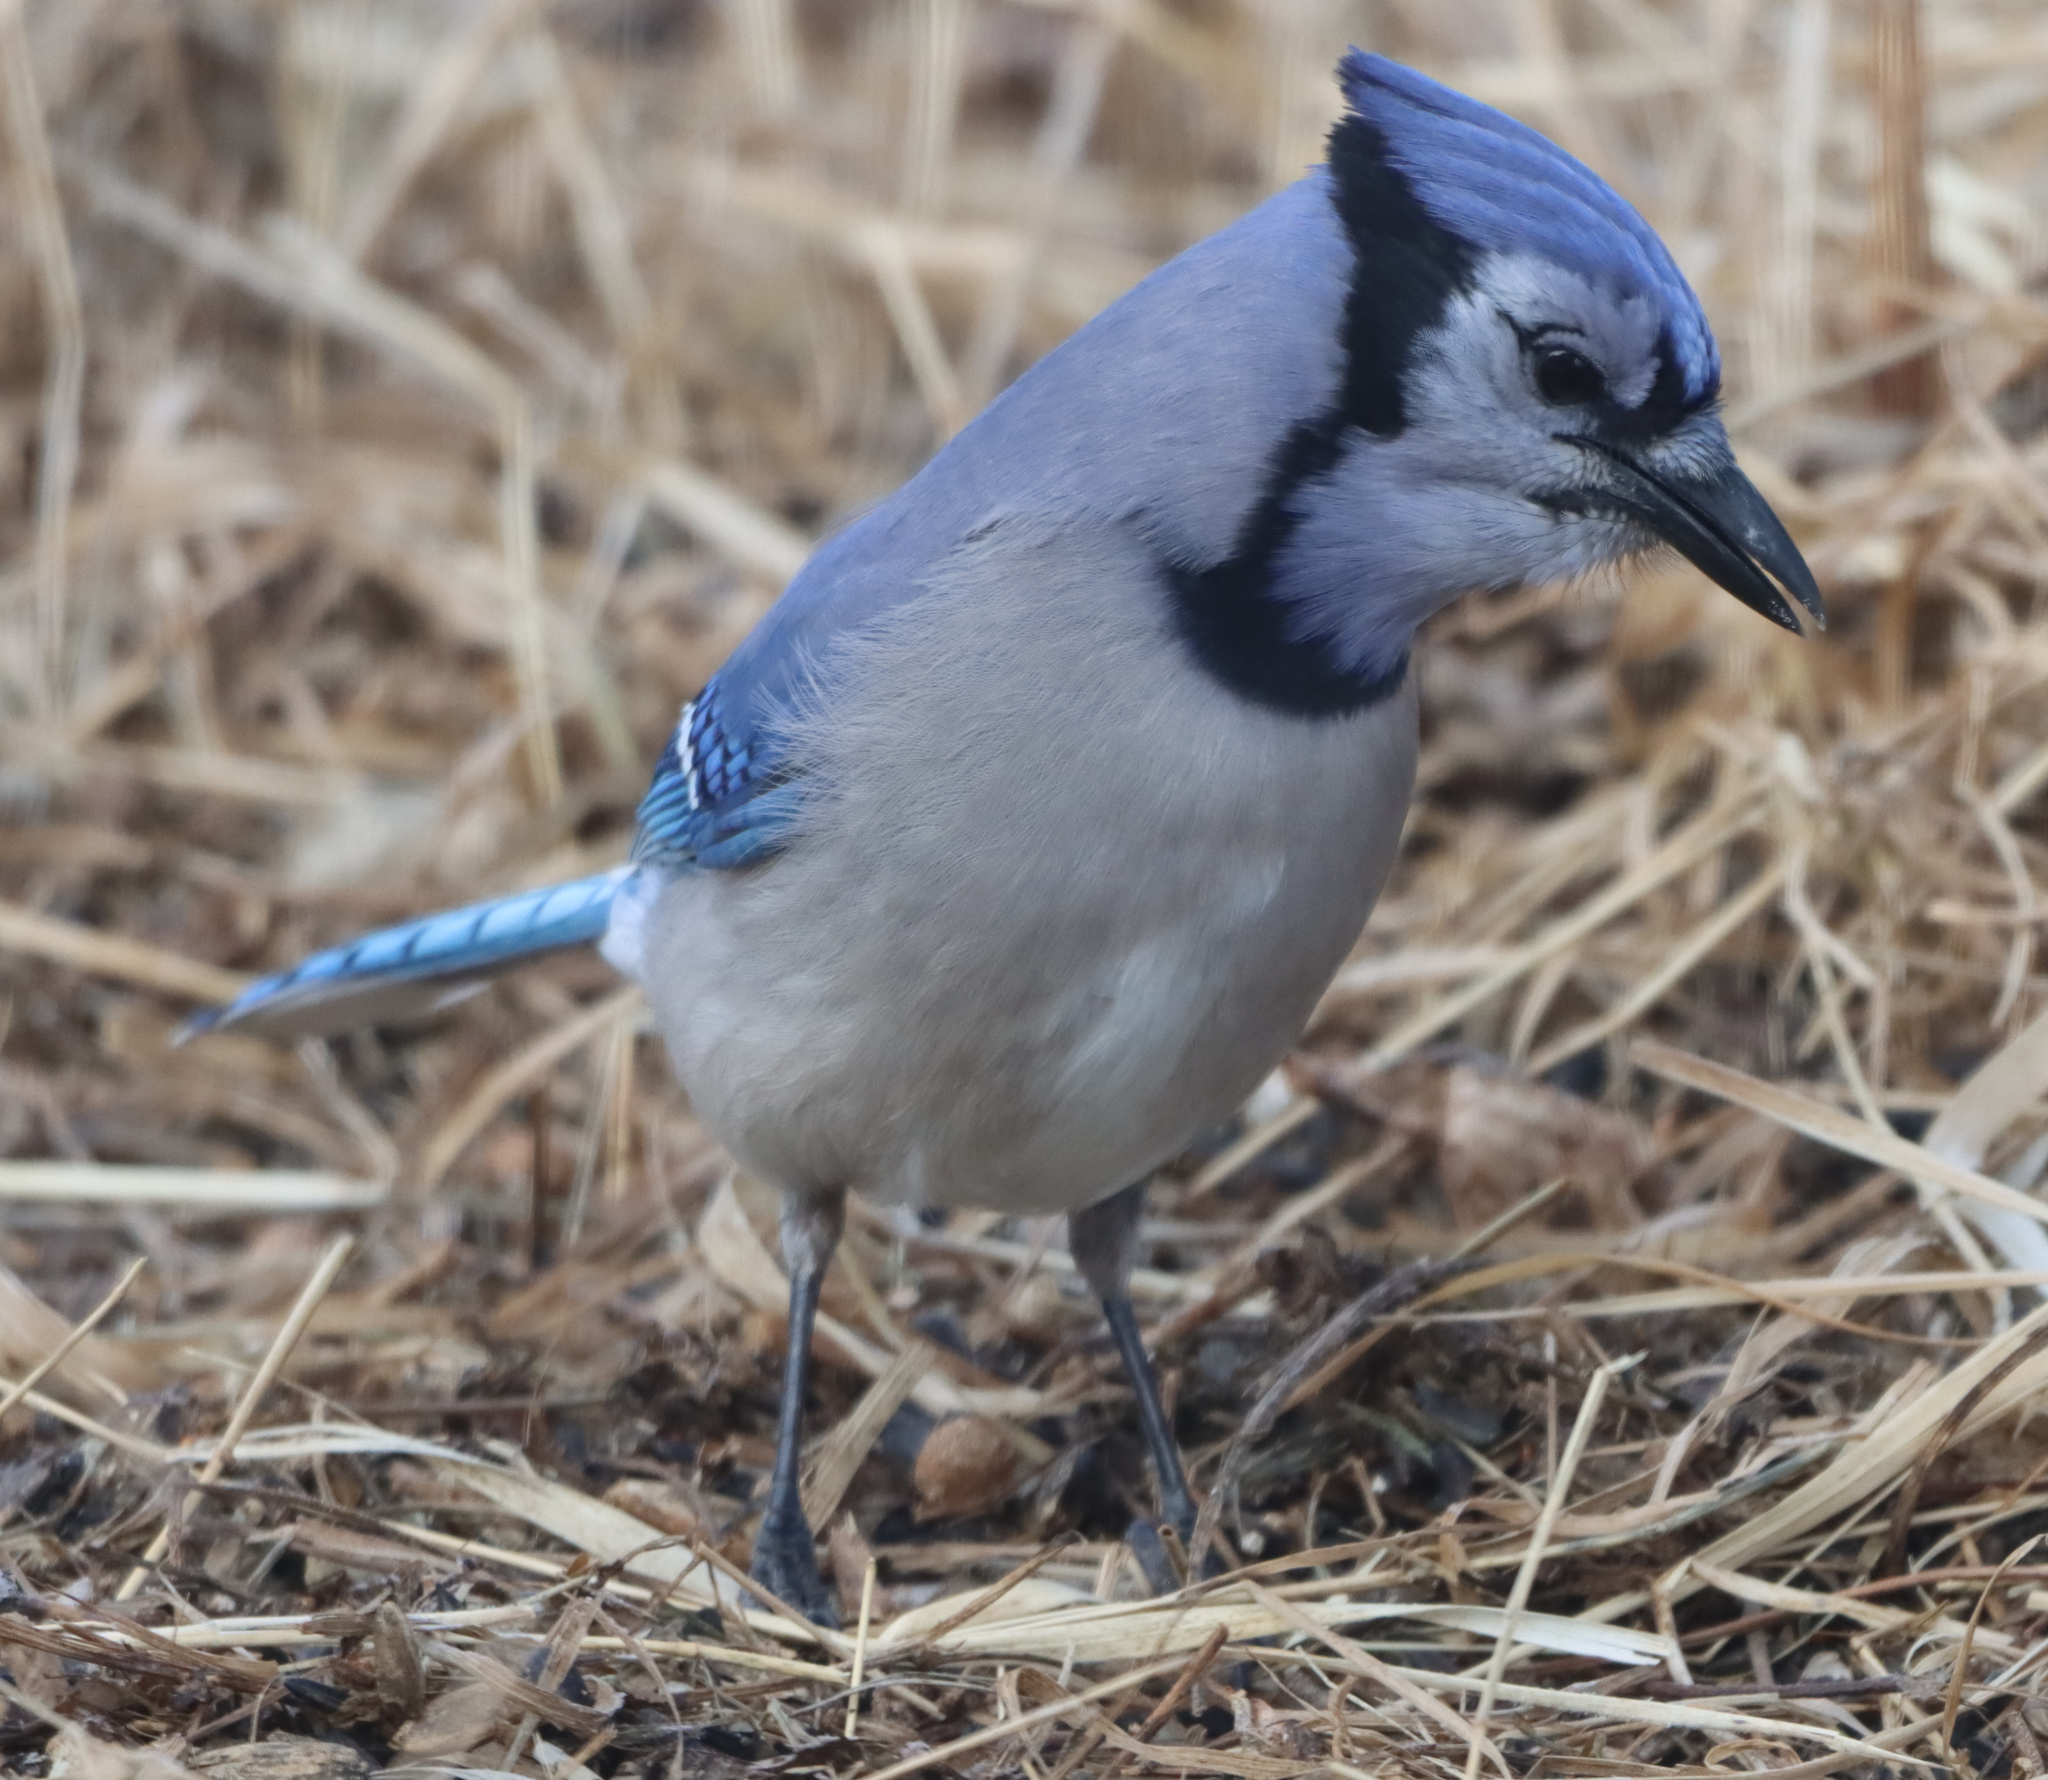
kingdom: Animalia
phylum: Chordata
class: Aves
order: Passeriformes
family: Corvidae
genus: Cyanocitta
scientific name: Cyanocitta cristata
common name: Blue jay
